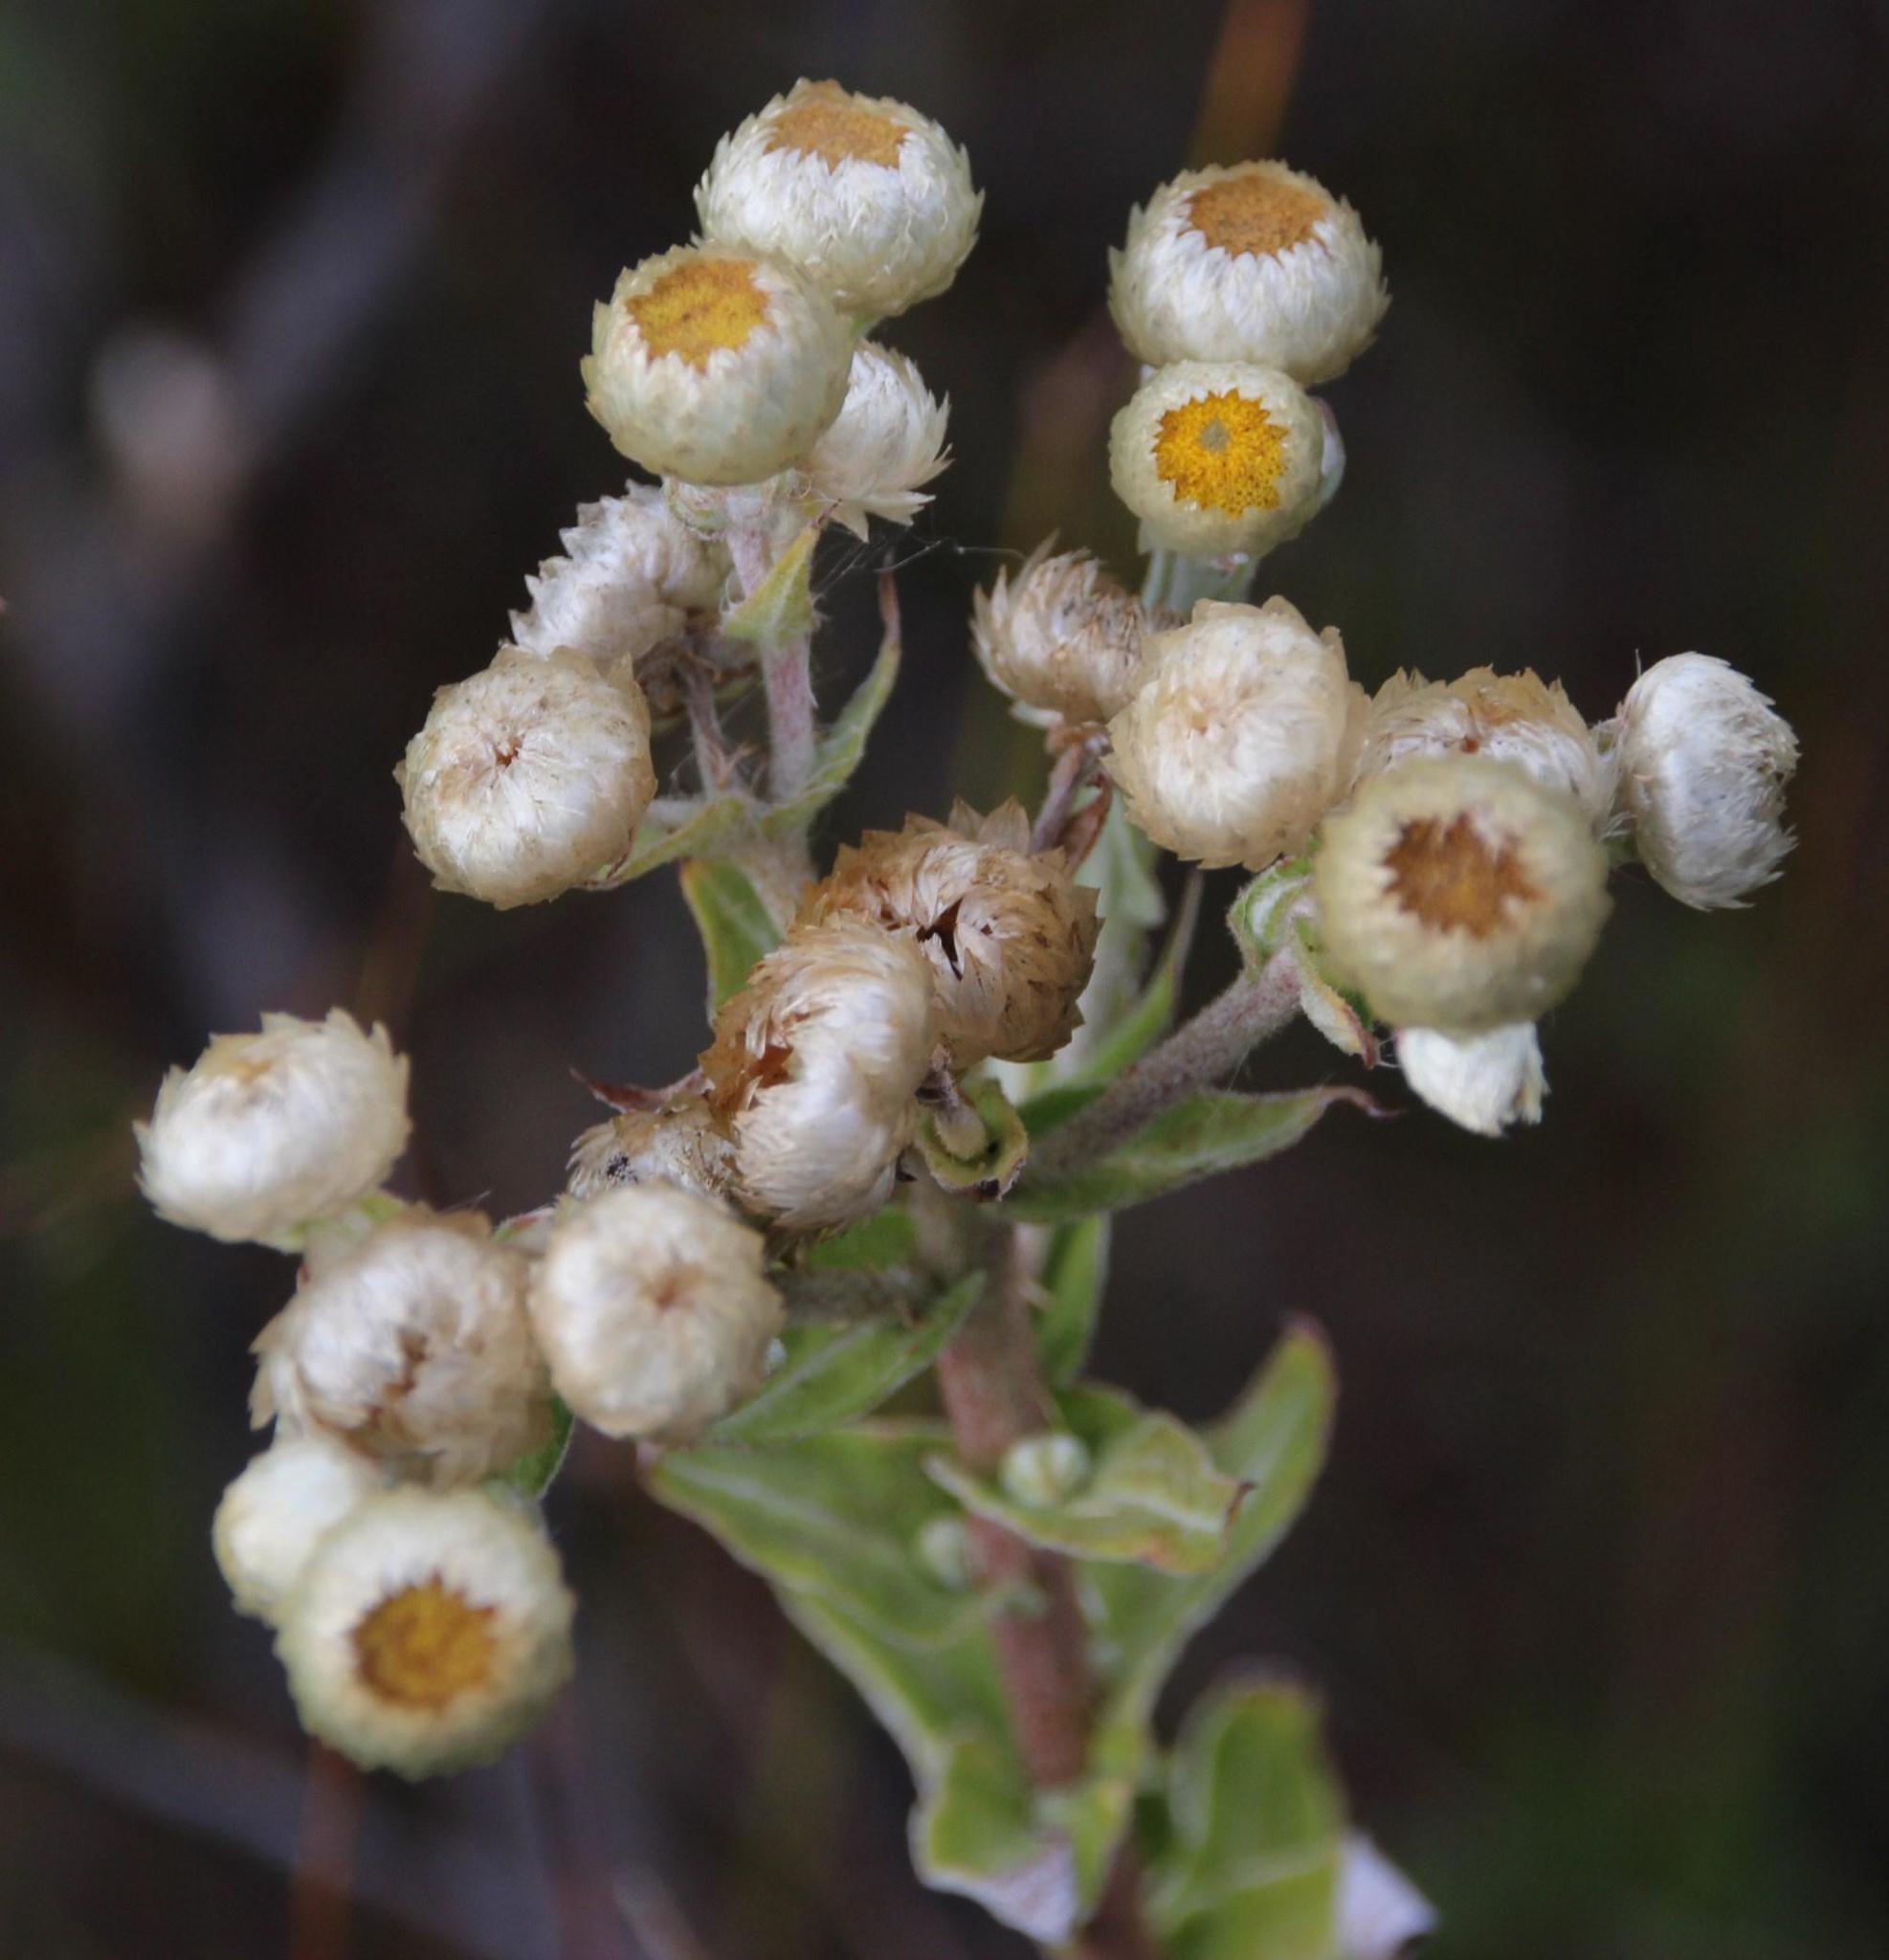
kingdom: Plantae
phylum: Tracheophyta
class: Magnoliopsida
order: Asterales
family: Asteraceae
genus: Helichrysum
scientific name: Helichrysum foetidum
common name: Stinking everlasting
